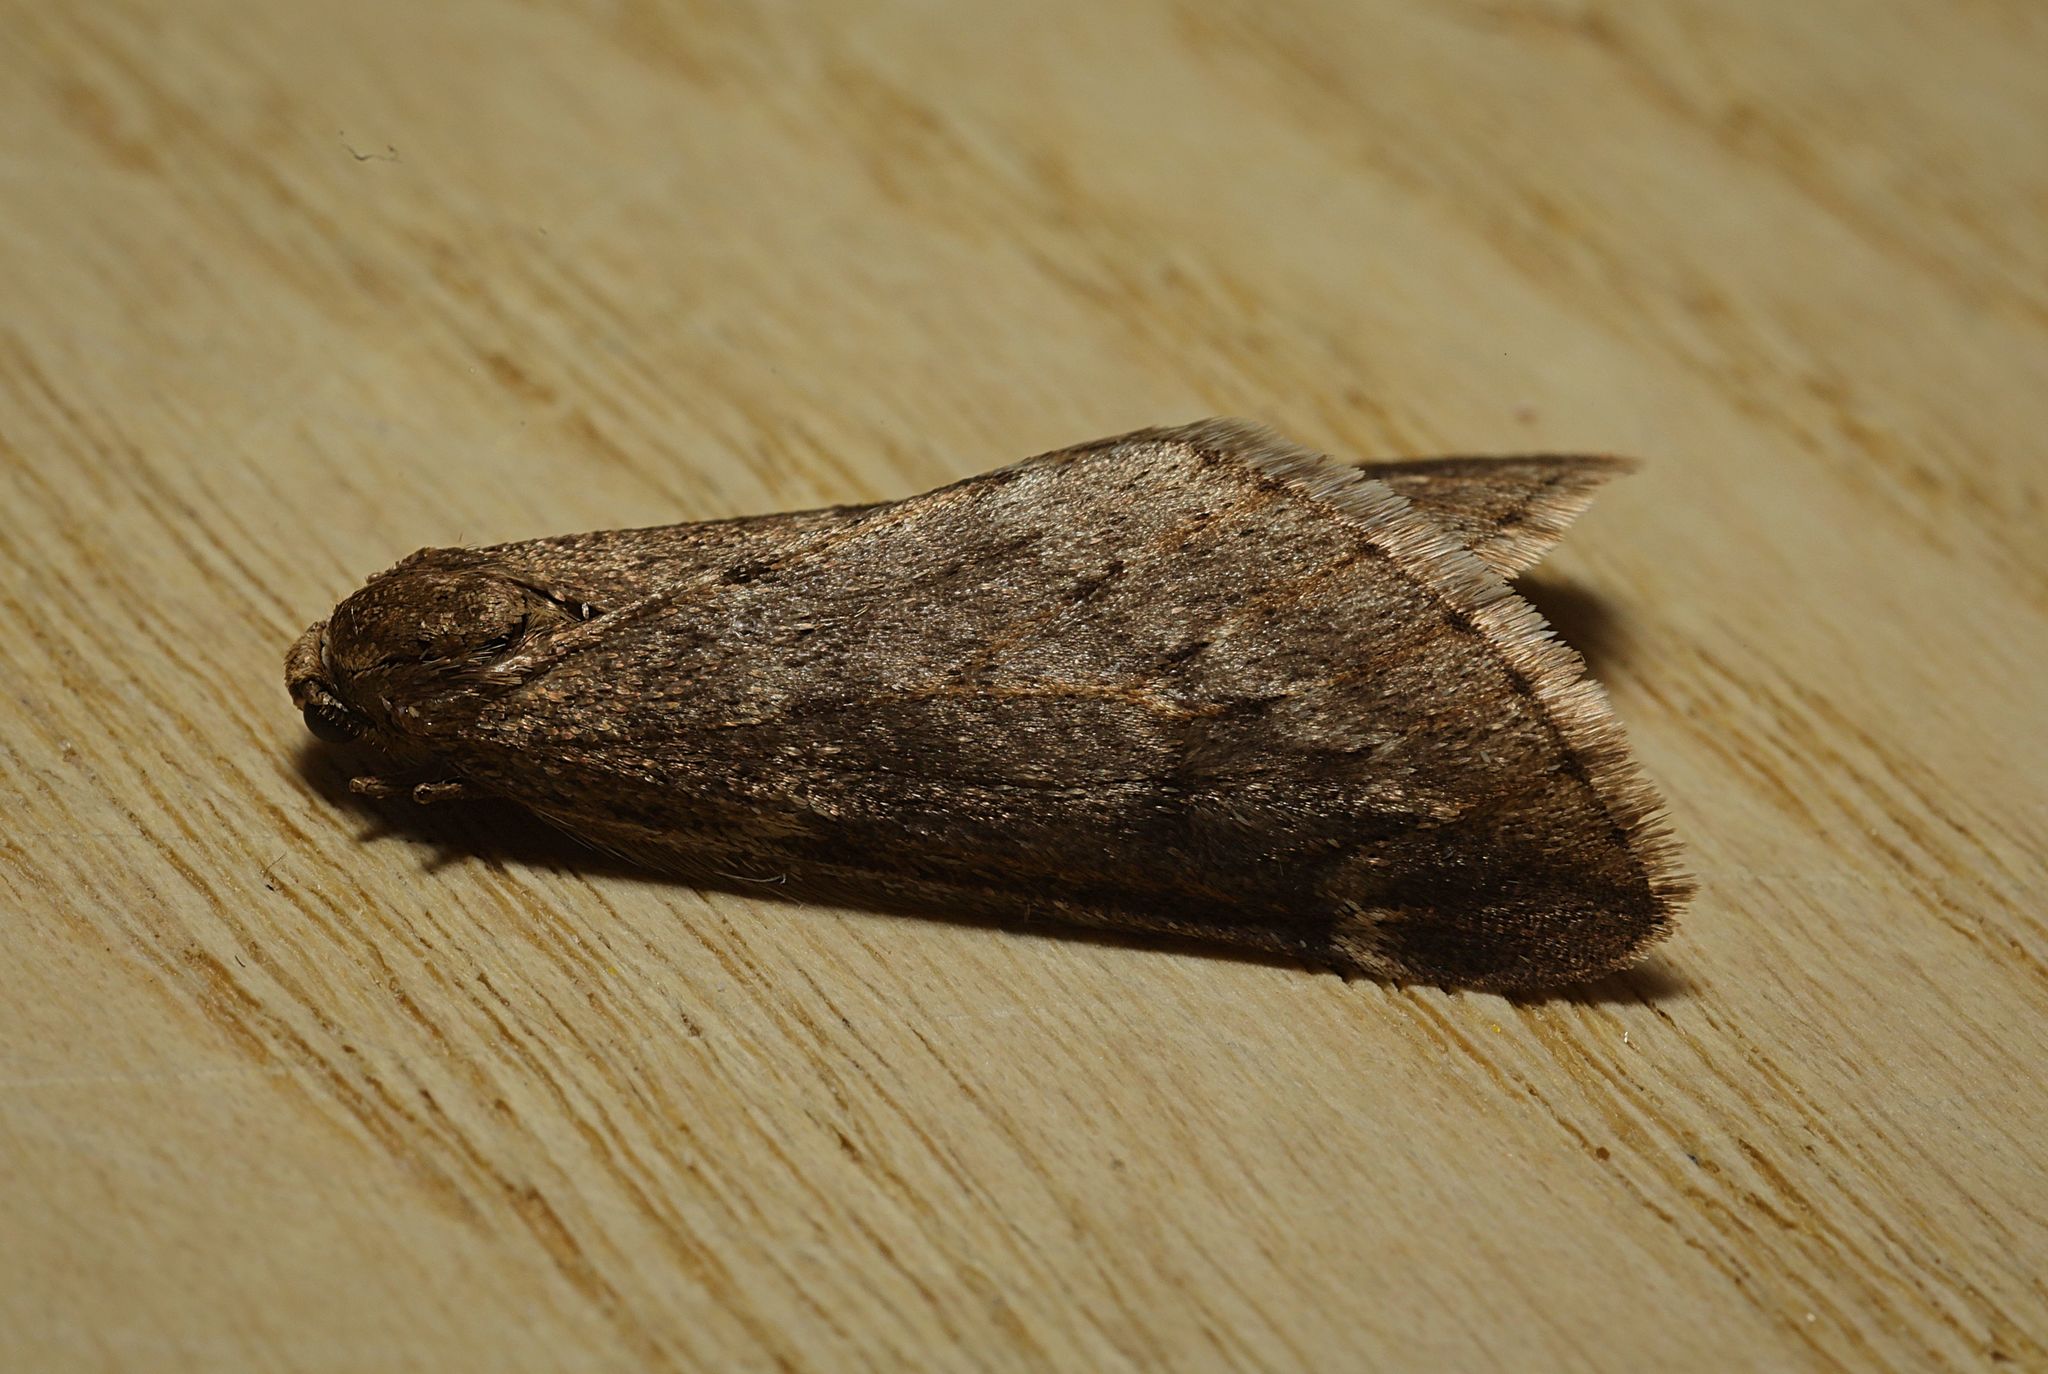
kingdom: Animalia
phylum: Arthropoda
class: Insecta
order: Lepidoptera
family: Geometridae
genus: Alsophila
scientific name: Alsophila aescularia
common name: March moth
